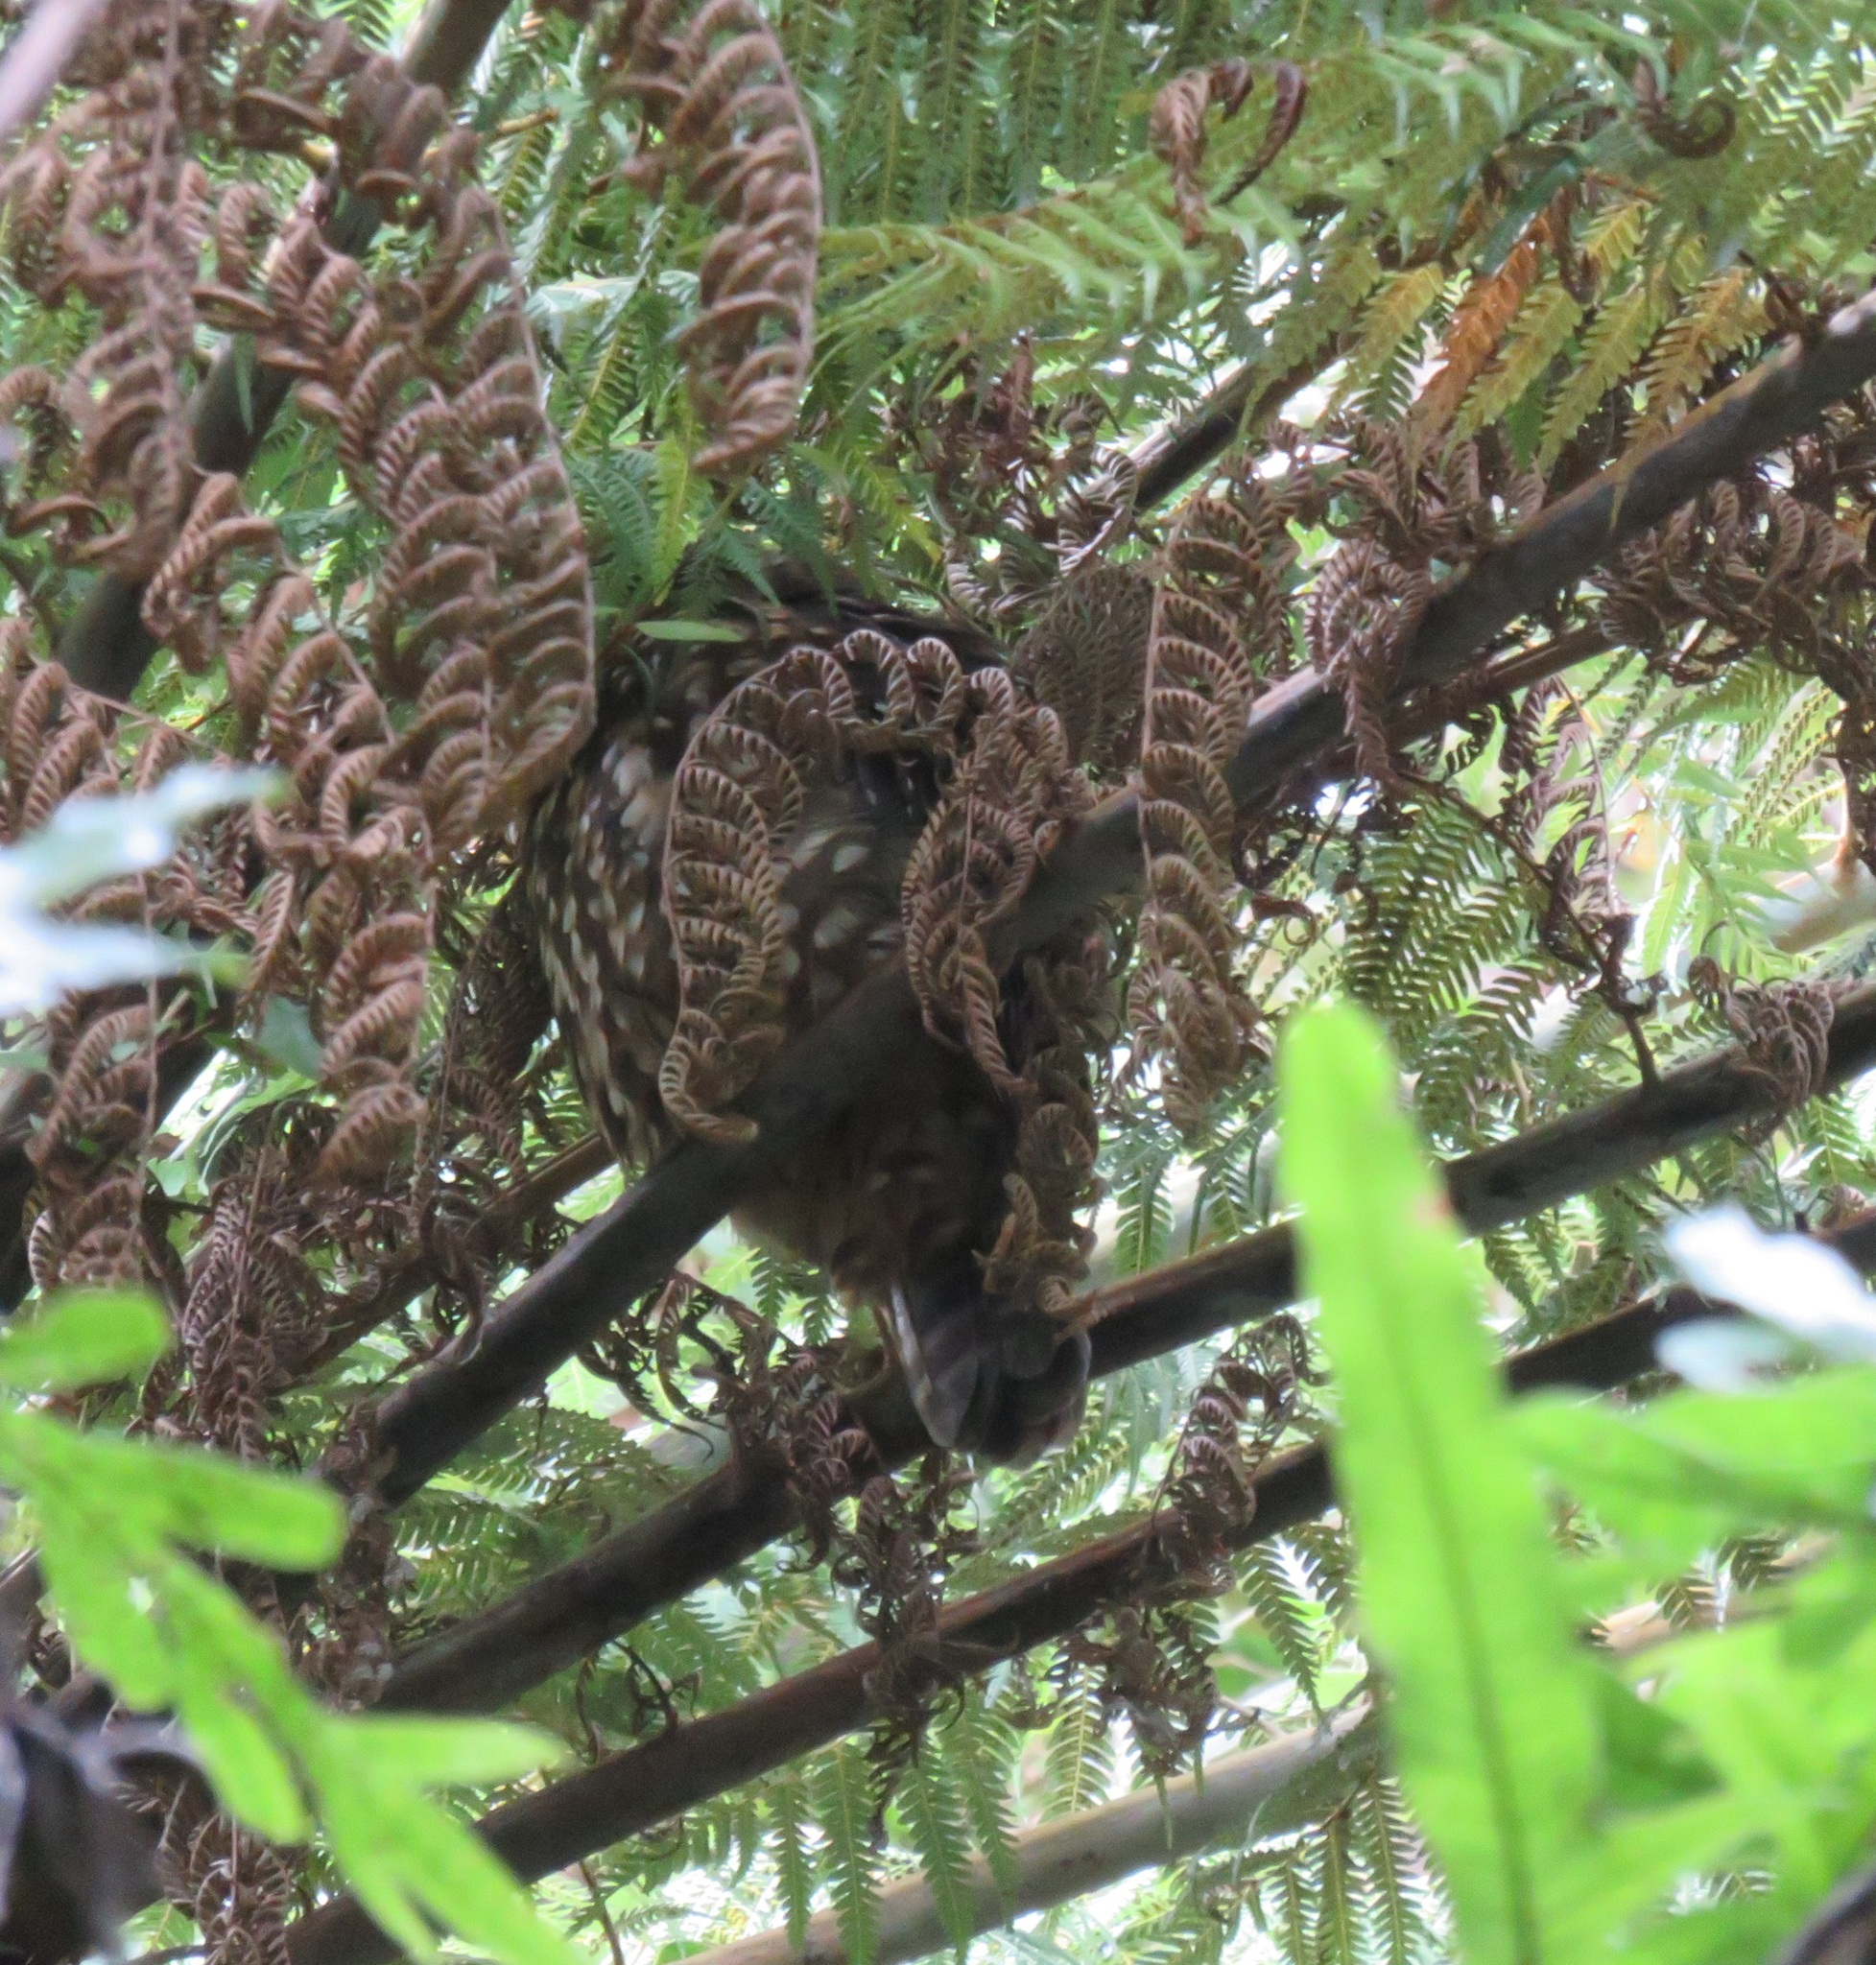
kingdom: Animalia
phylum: Chordata
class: Aves
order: Strigiformes
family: Strigidae
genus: Ninox
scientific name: Ninox novaeseelandiae
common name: Morepork
